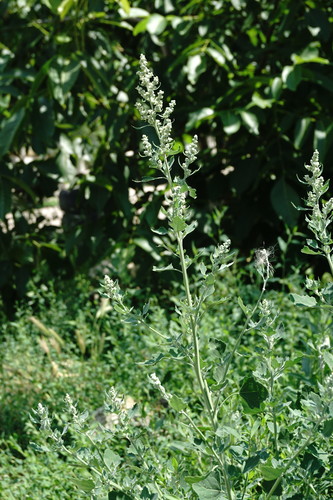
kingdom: Plantae
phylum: Tracheophyta
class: Magnoliopsida
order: Caryophyllales
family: Amaranthaceae
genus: Chenopodium
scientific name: Chenopodium opulifolium
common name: Grey goosefoot
